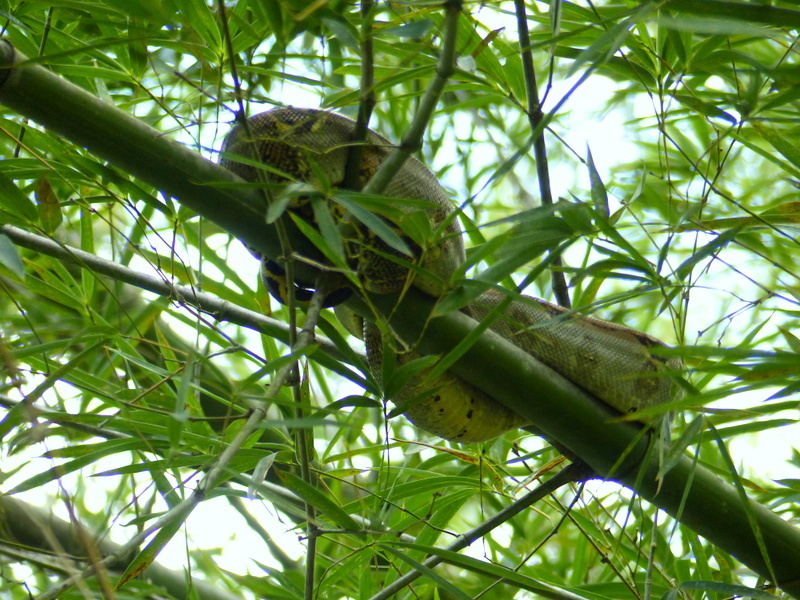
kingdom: Animalia
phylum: Chordata
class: Squamata
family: Boidae
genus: Boa
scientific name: Boa imperator
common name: Central american boa
